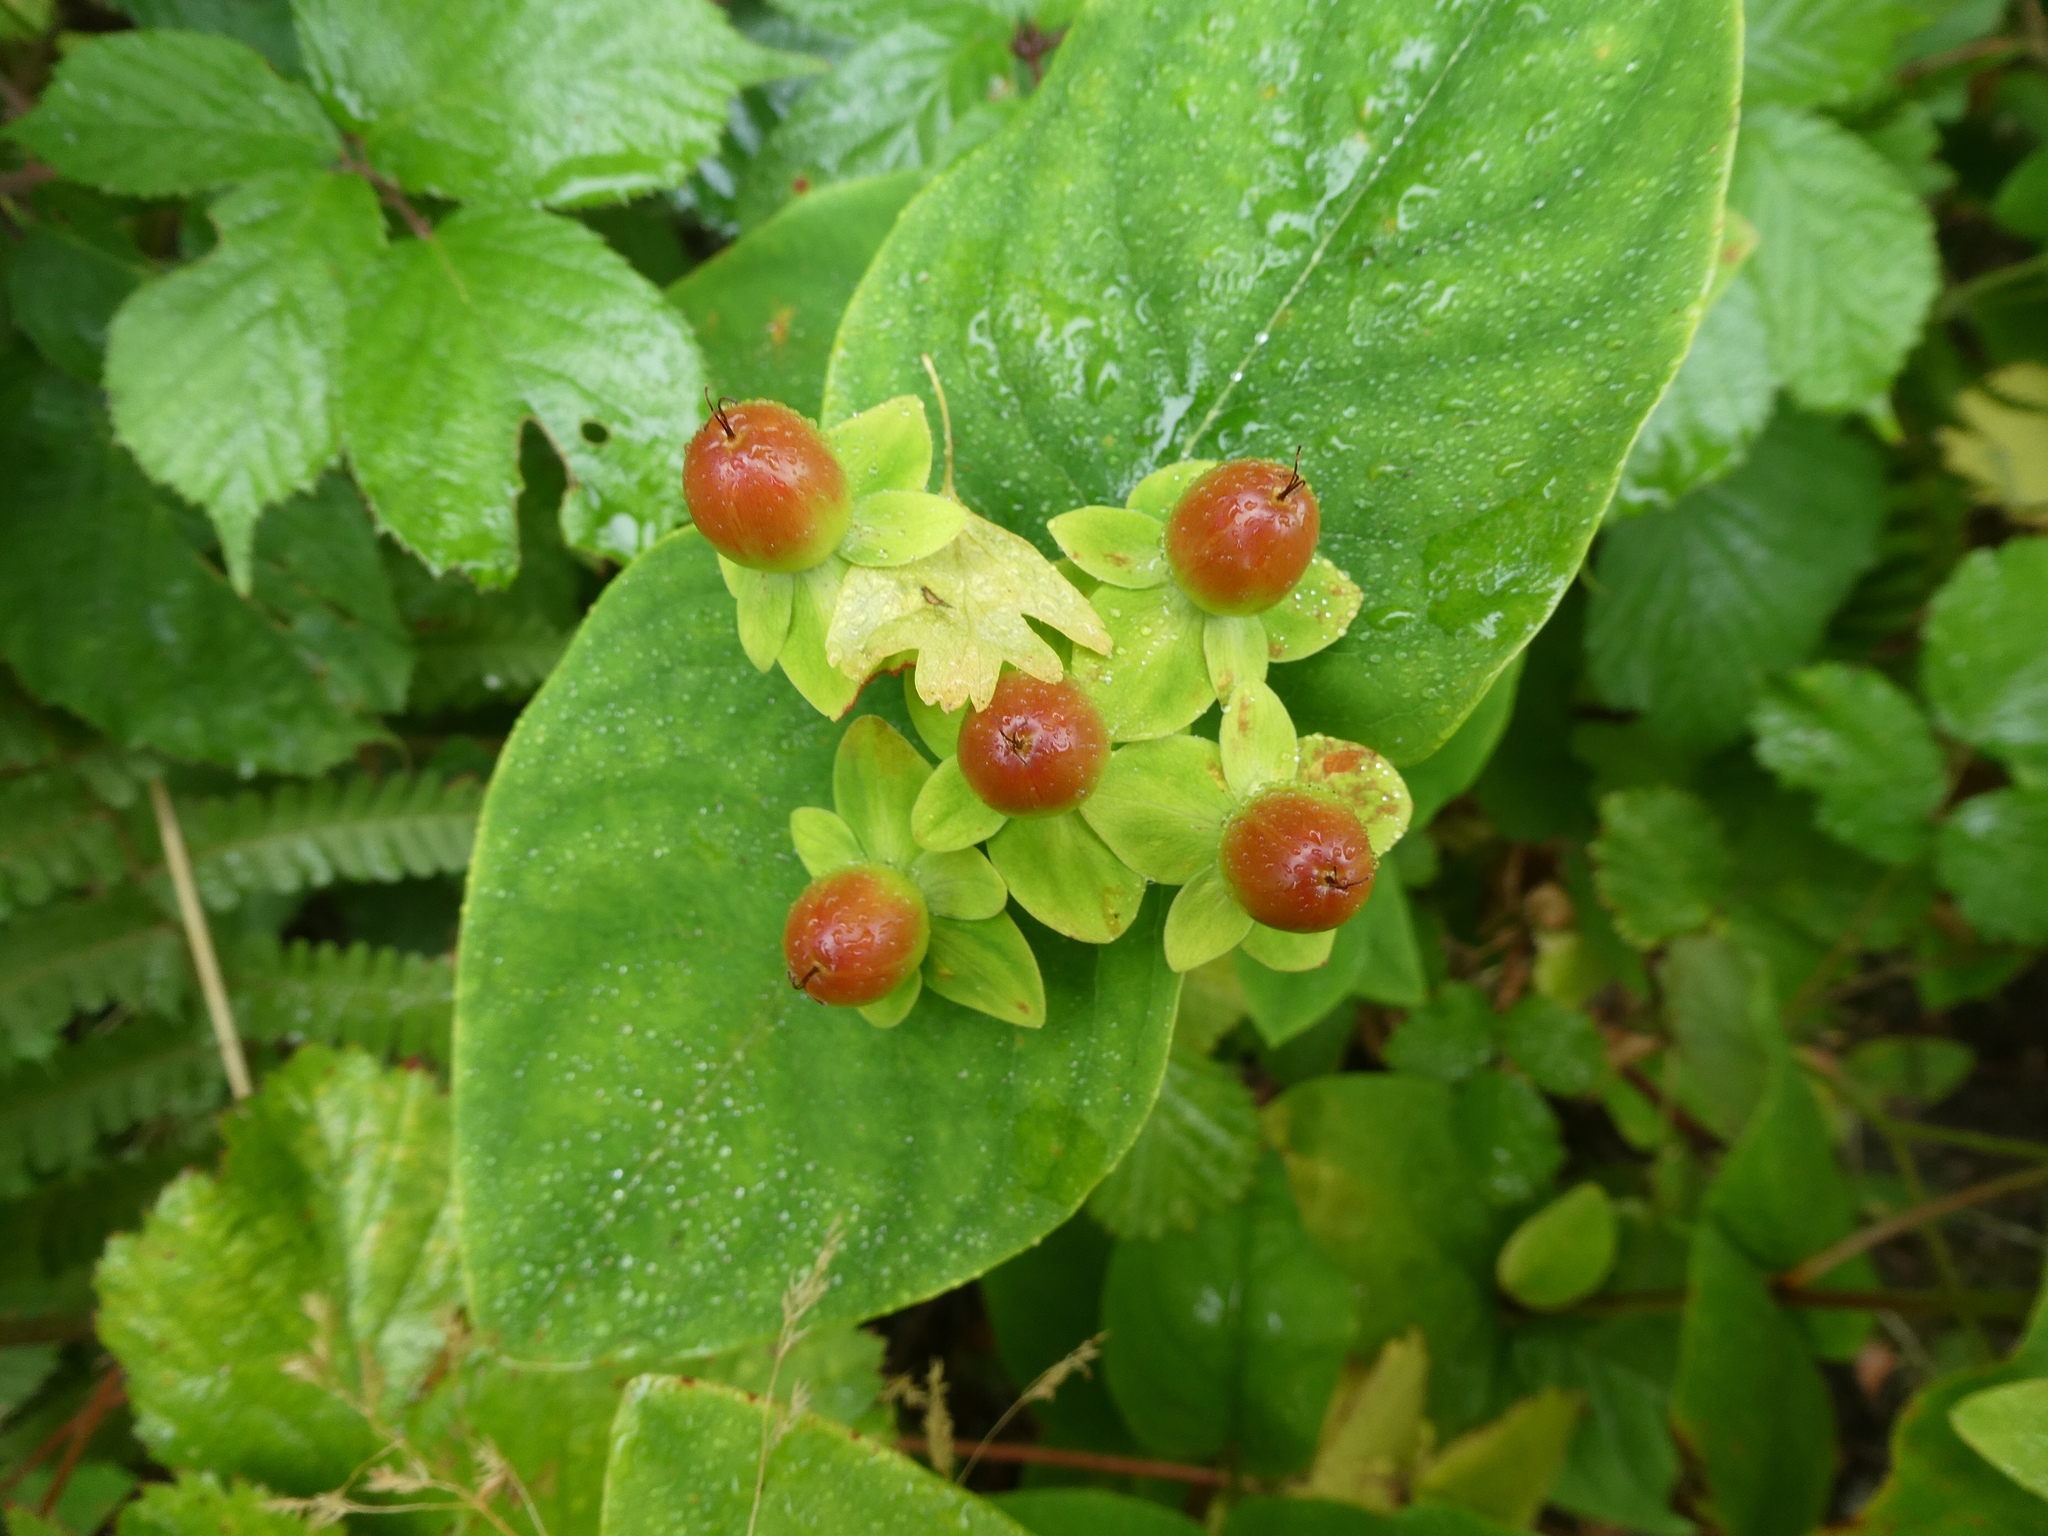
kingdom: Plantae
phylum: Tracheophyta
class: Magnoliopsida
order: Malpighiales
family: Hypericaceae
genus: Hypericum
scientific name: Hypericum androsaemum
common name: Sweet-amber
